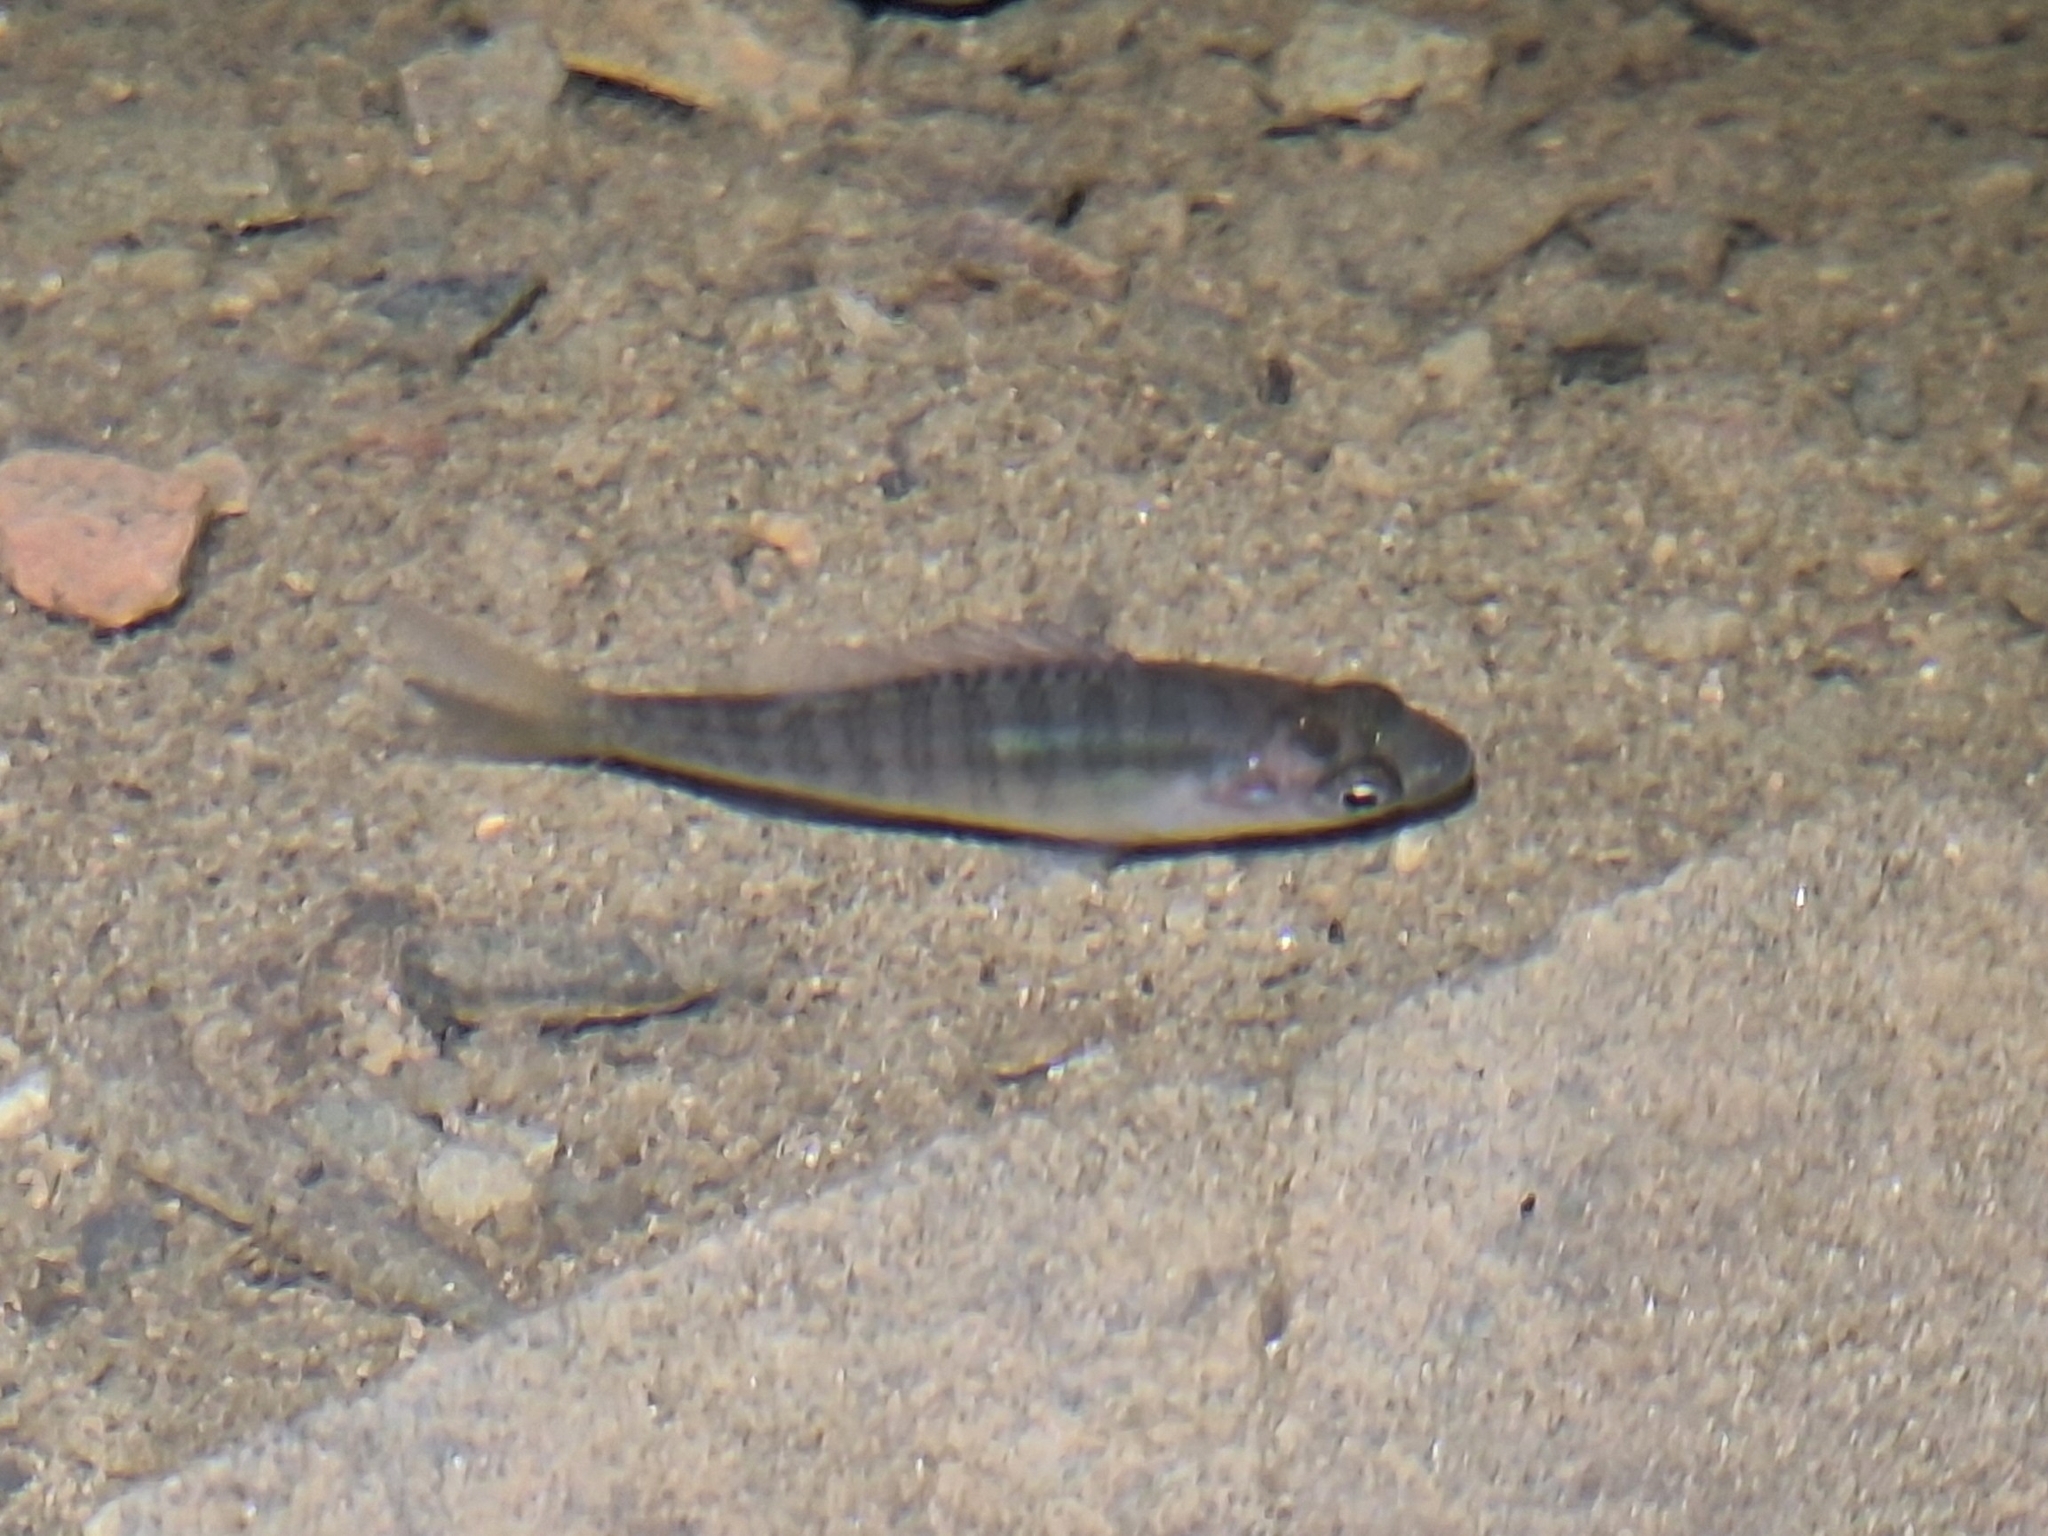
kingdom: Animalia
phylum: Chordata
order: Perciformes
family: Centrarchidae
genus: Lepomis
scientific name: Lepomis macrochirus
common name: Bluegill
